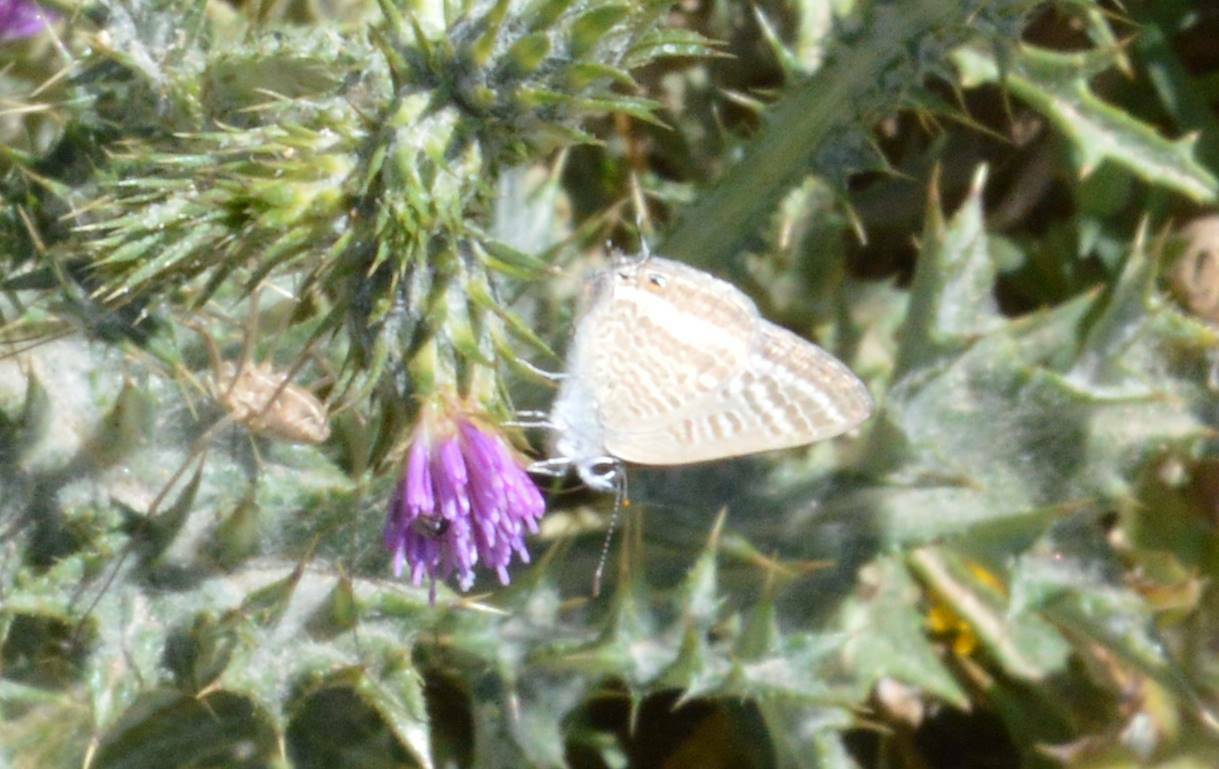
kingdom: Animalia
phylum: Arthropoda
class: Insecta
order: Lepidoptera
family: Lycaenidae
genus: Lampides
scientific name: Lampides boeticus
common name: Long-tailed blue
